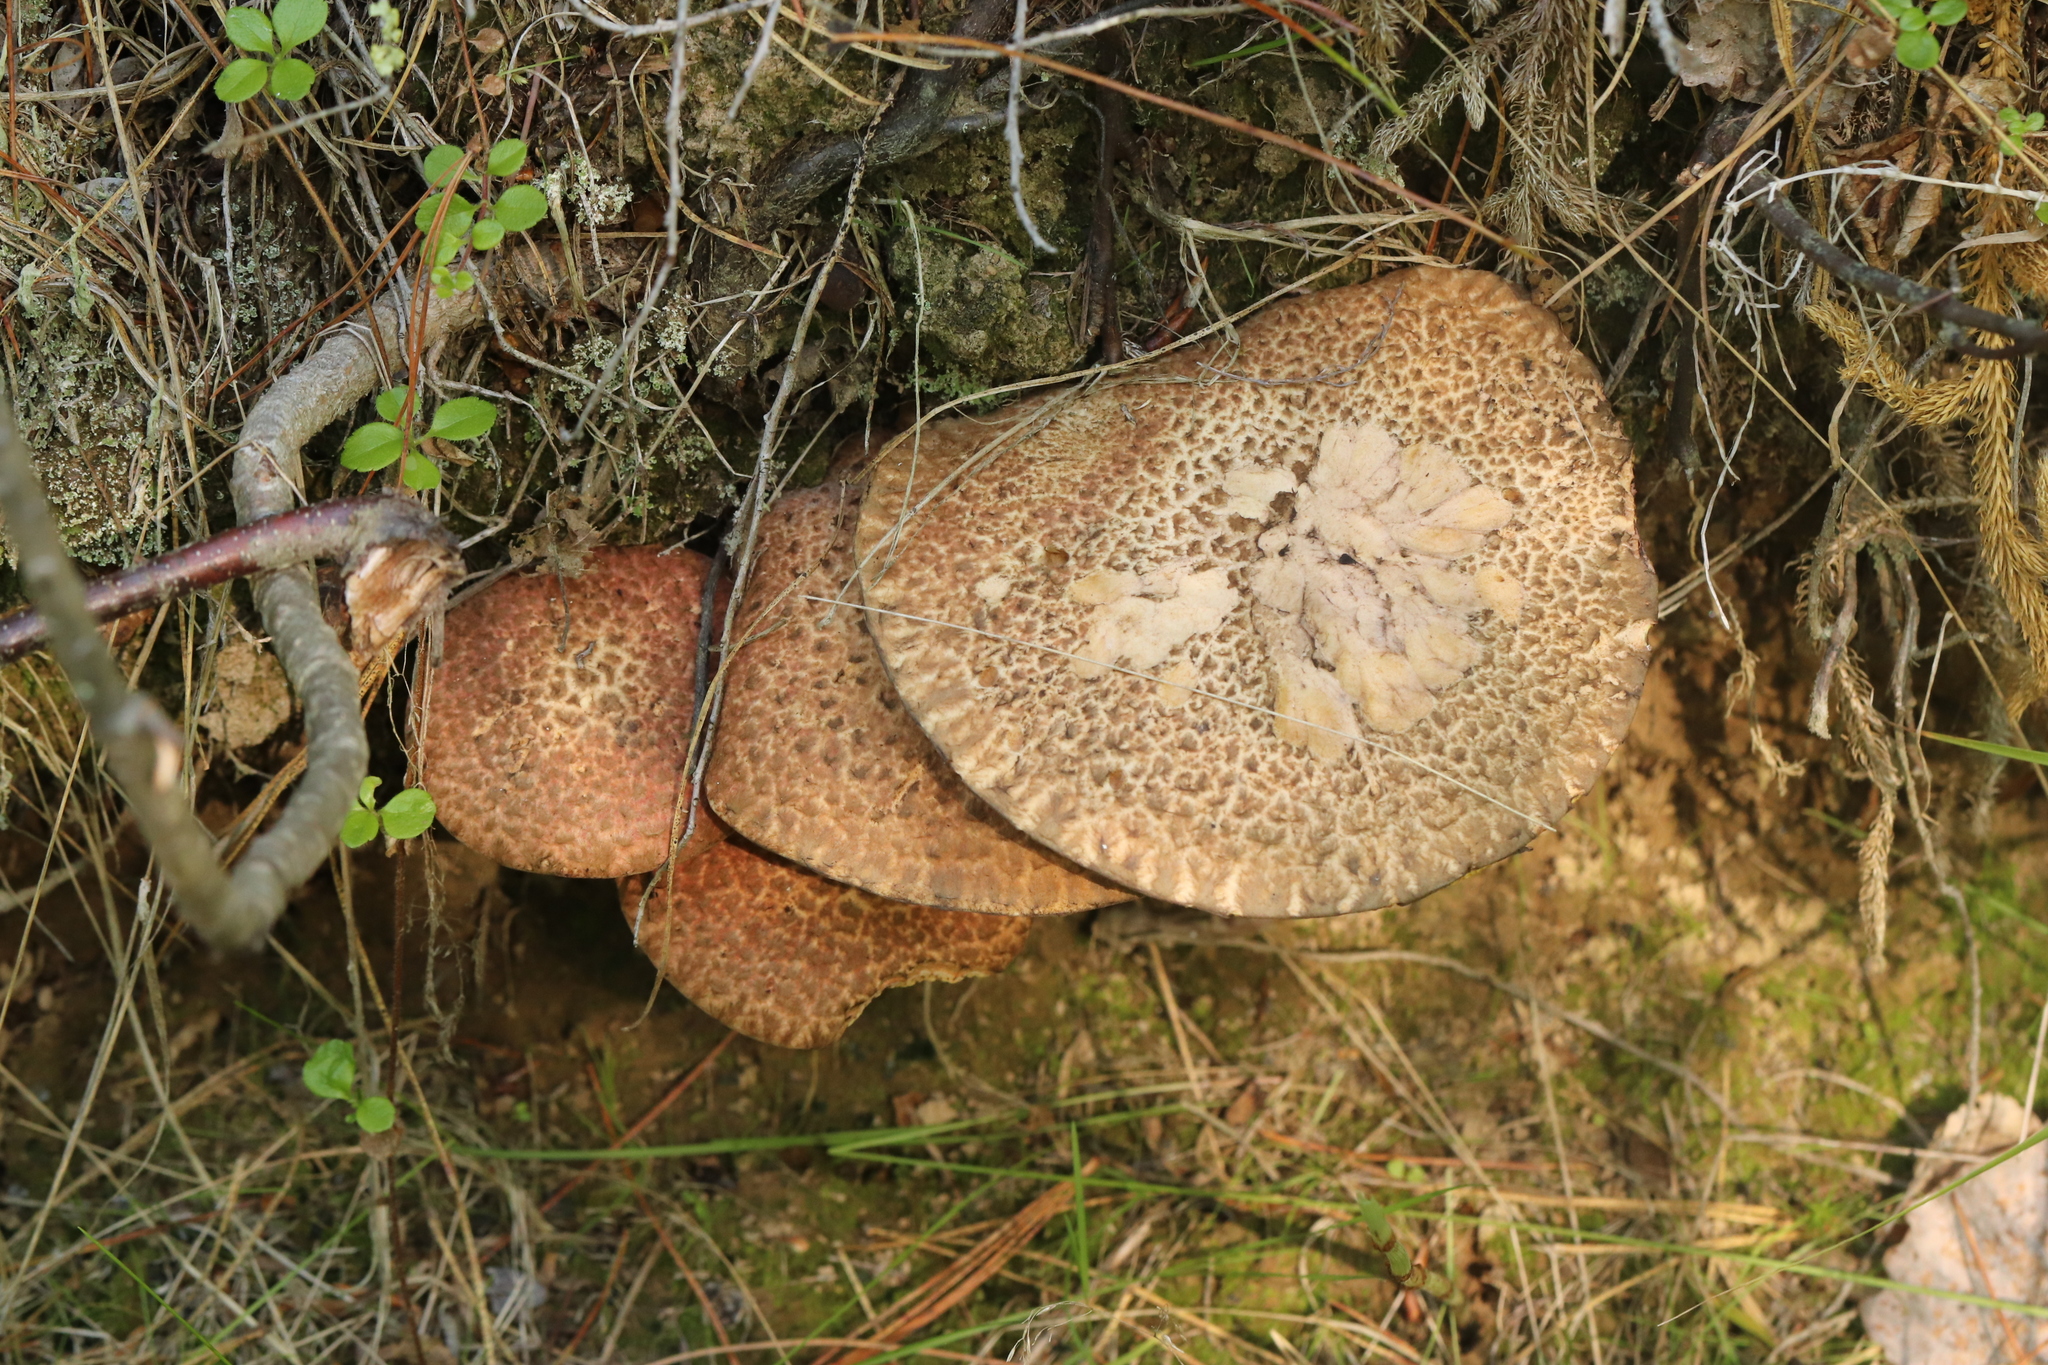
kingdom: Fungi
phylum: Basidiomycota
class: Agaricomycetes
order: Boletales
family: Suillaceae
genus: Suillus
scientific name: Suillus spraguei
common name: Painted suillus
